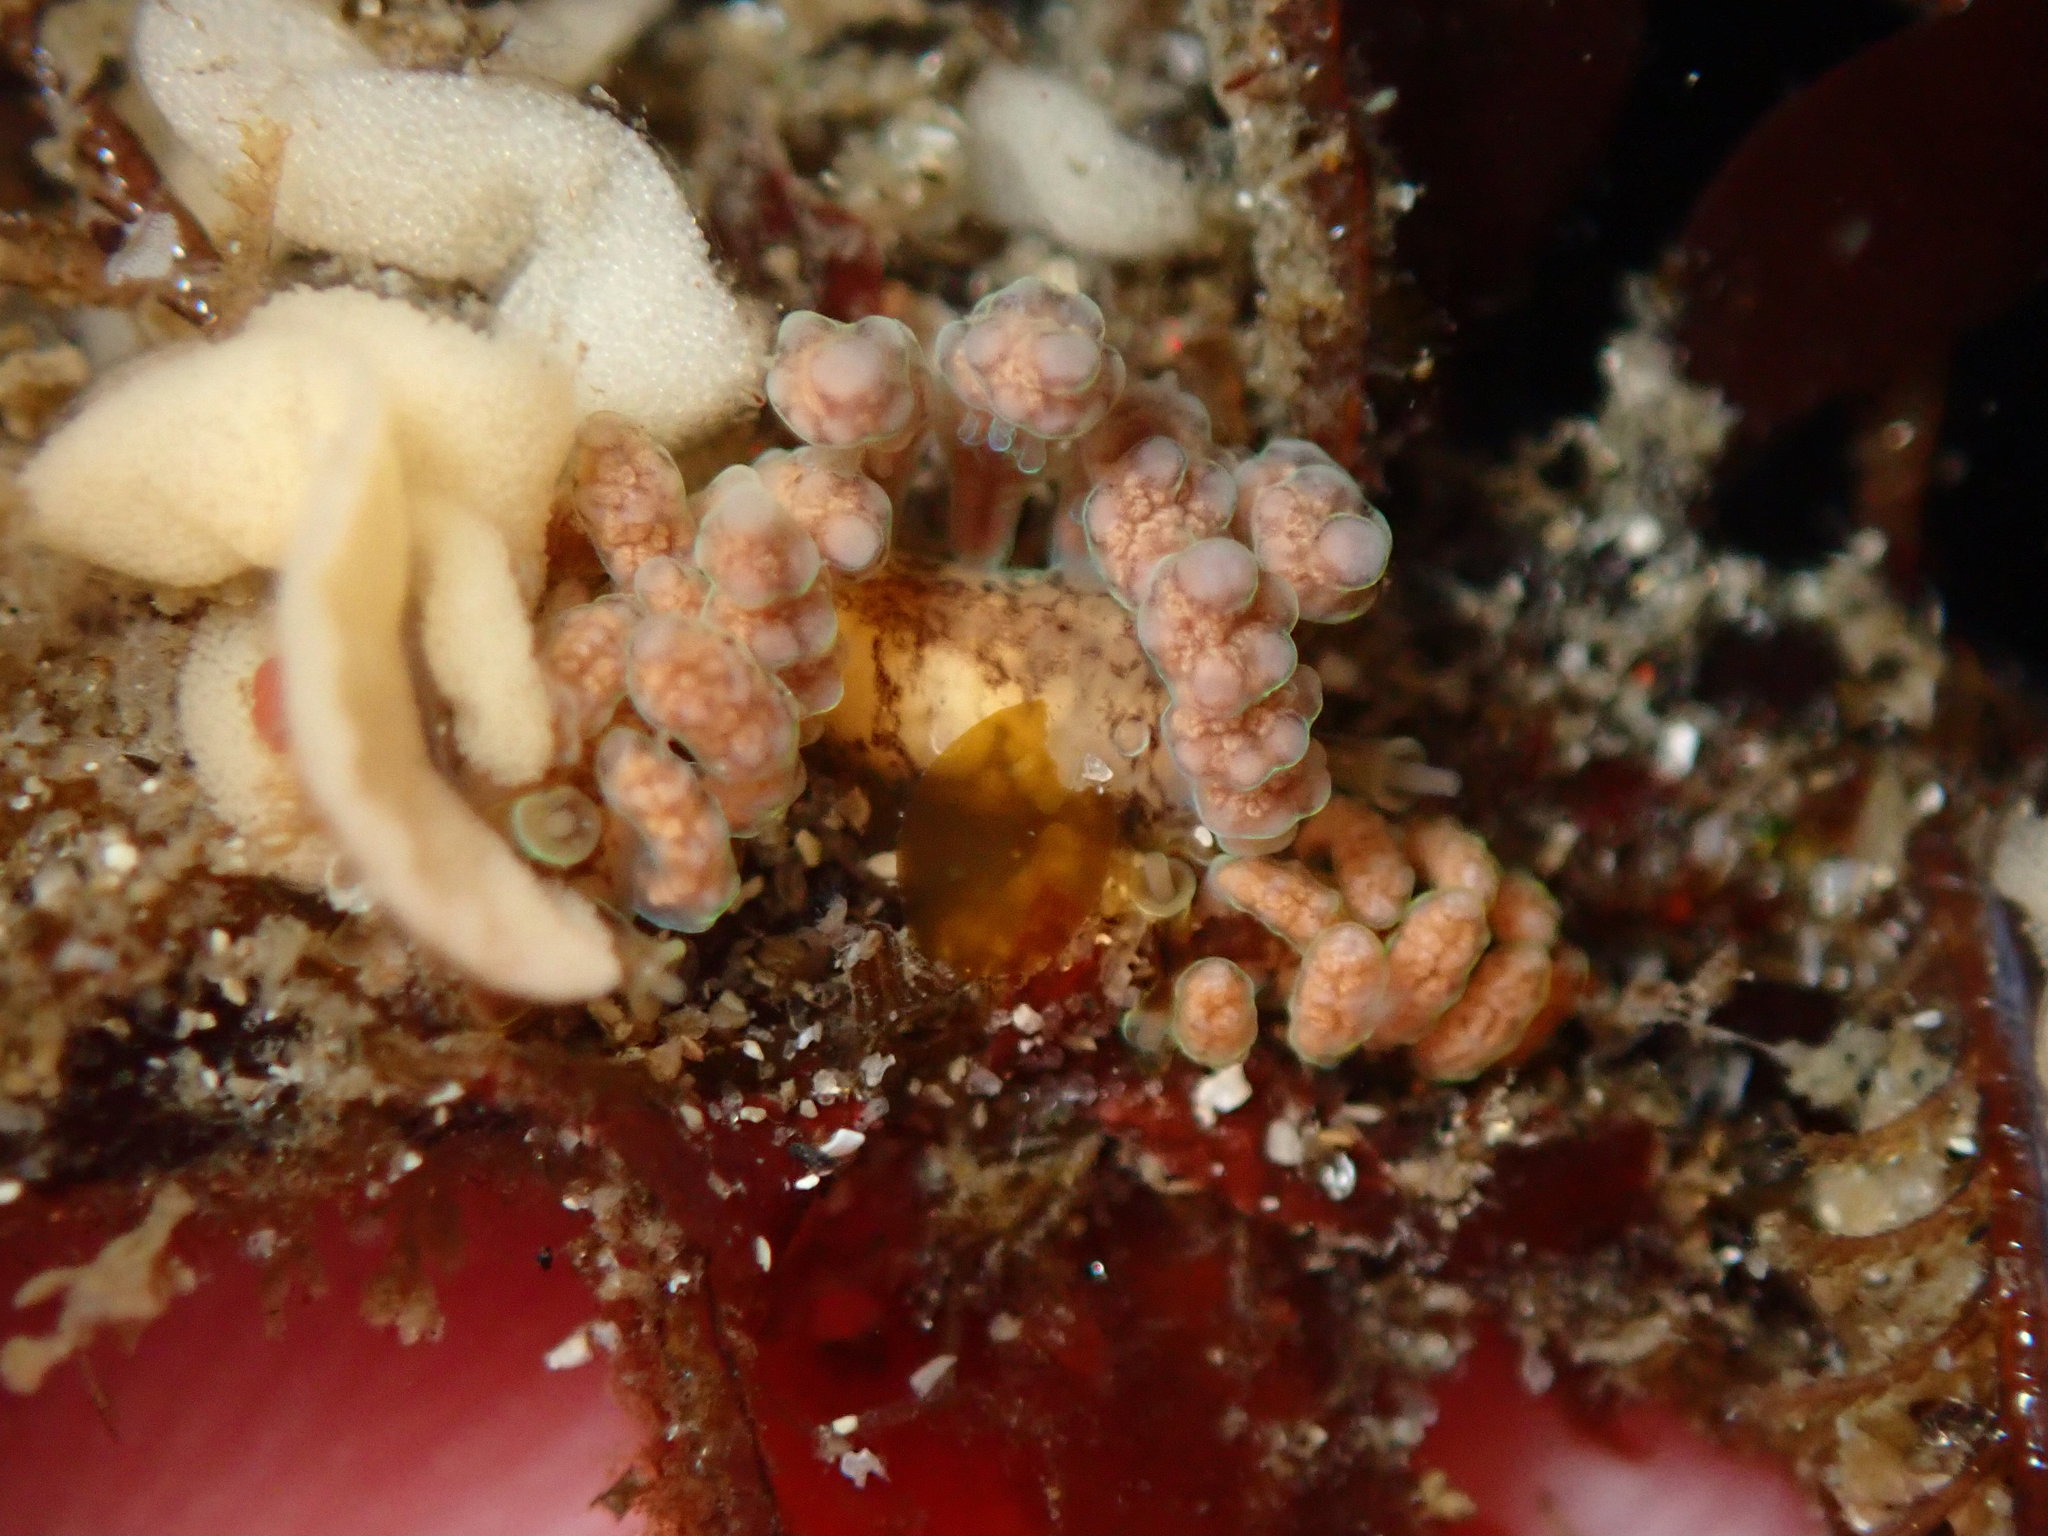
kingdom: Animalia
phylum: Mollusca
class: Gastropoda
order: Nudibranchia
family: Dotidae
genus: Doto
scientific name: Doto columbiana
